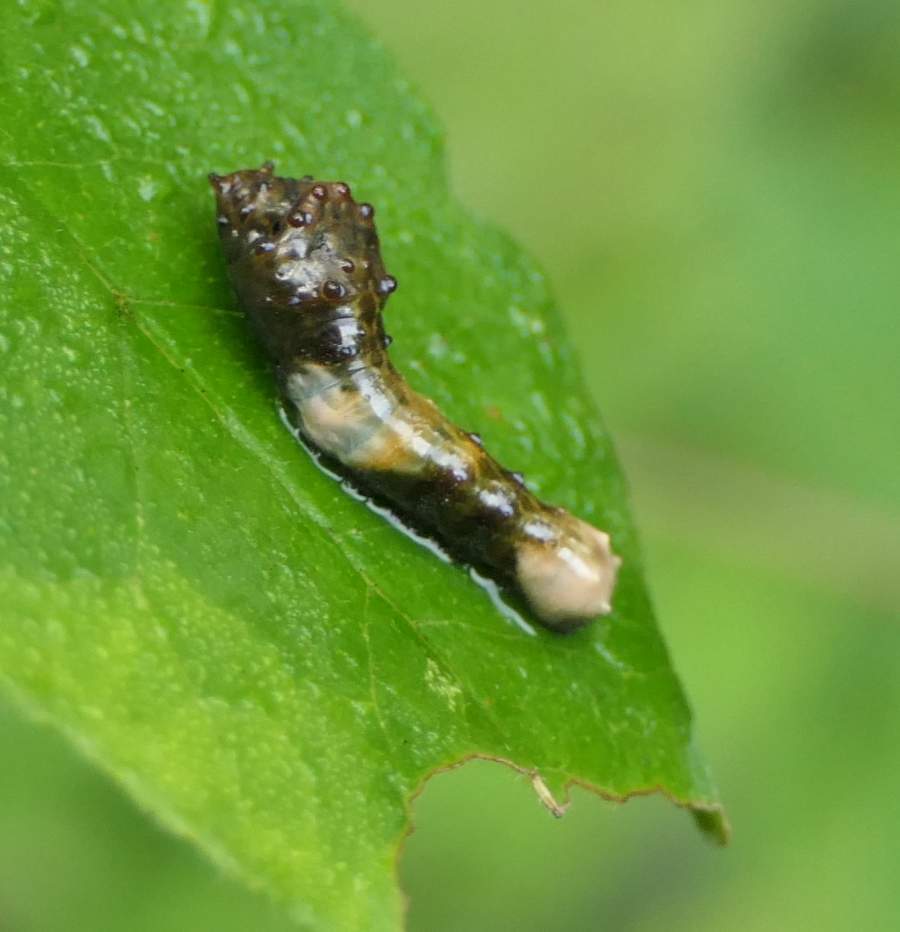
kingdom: Animalia
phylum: Arthropoda
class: Insecta
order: Lepidoptera
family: Papilionidae
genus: Papilio
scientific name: Papilio cresphontes
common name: Giant swallowtail
